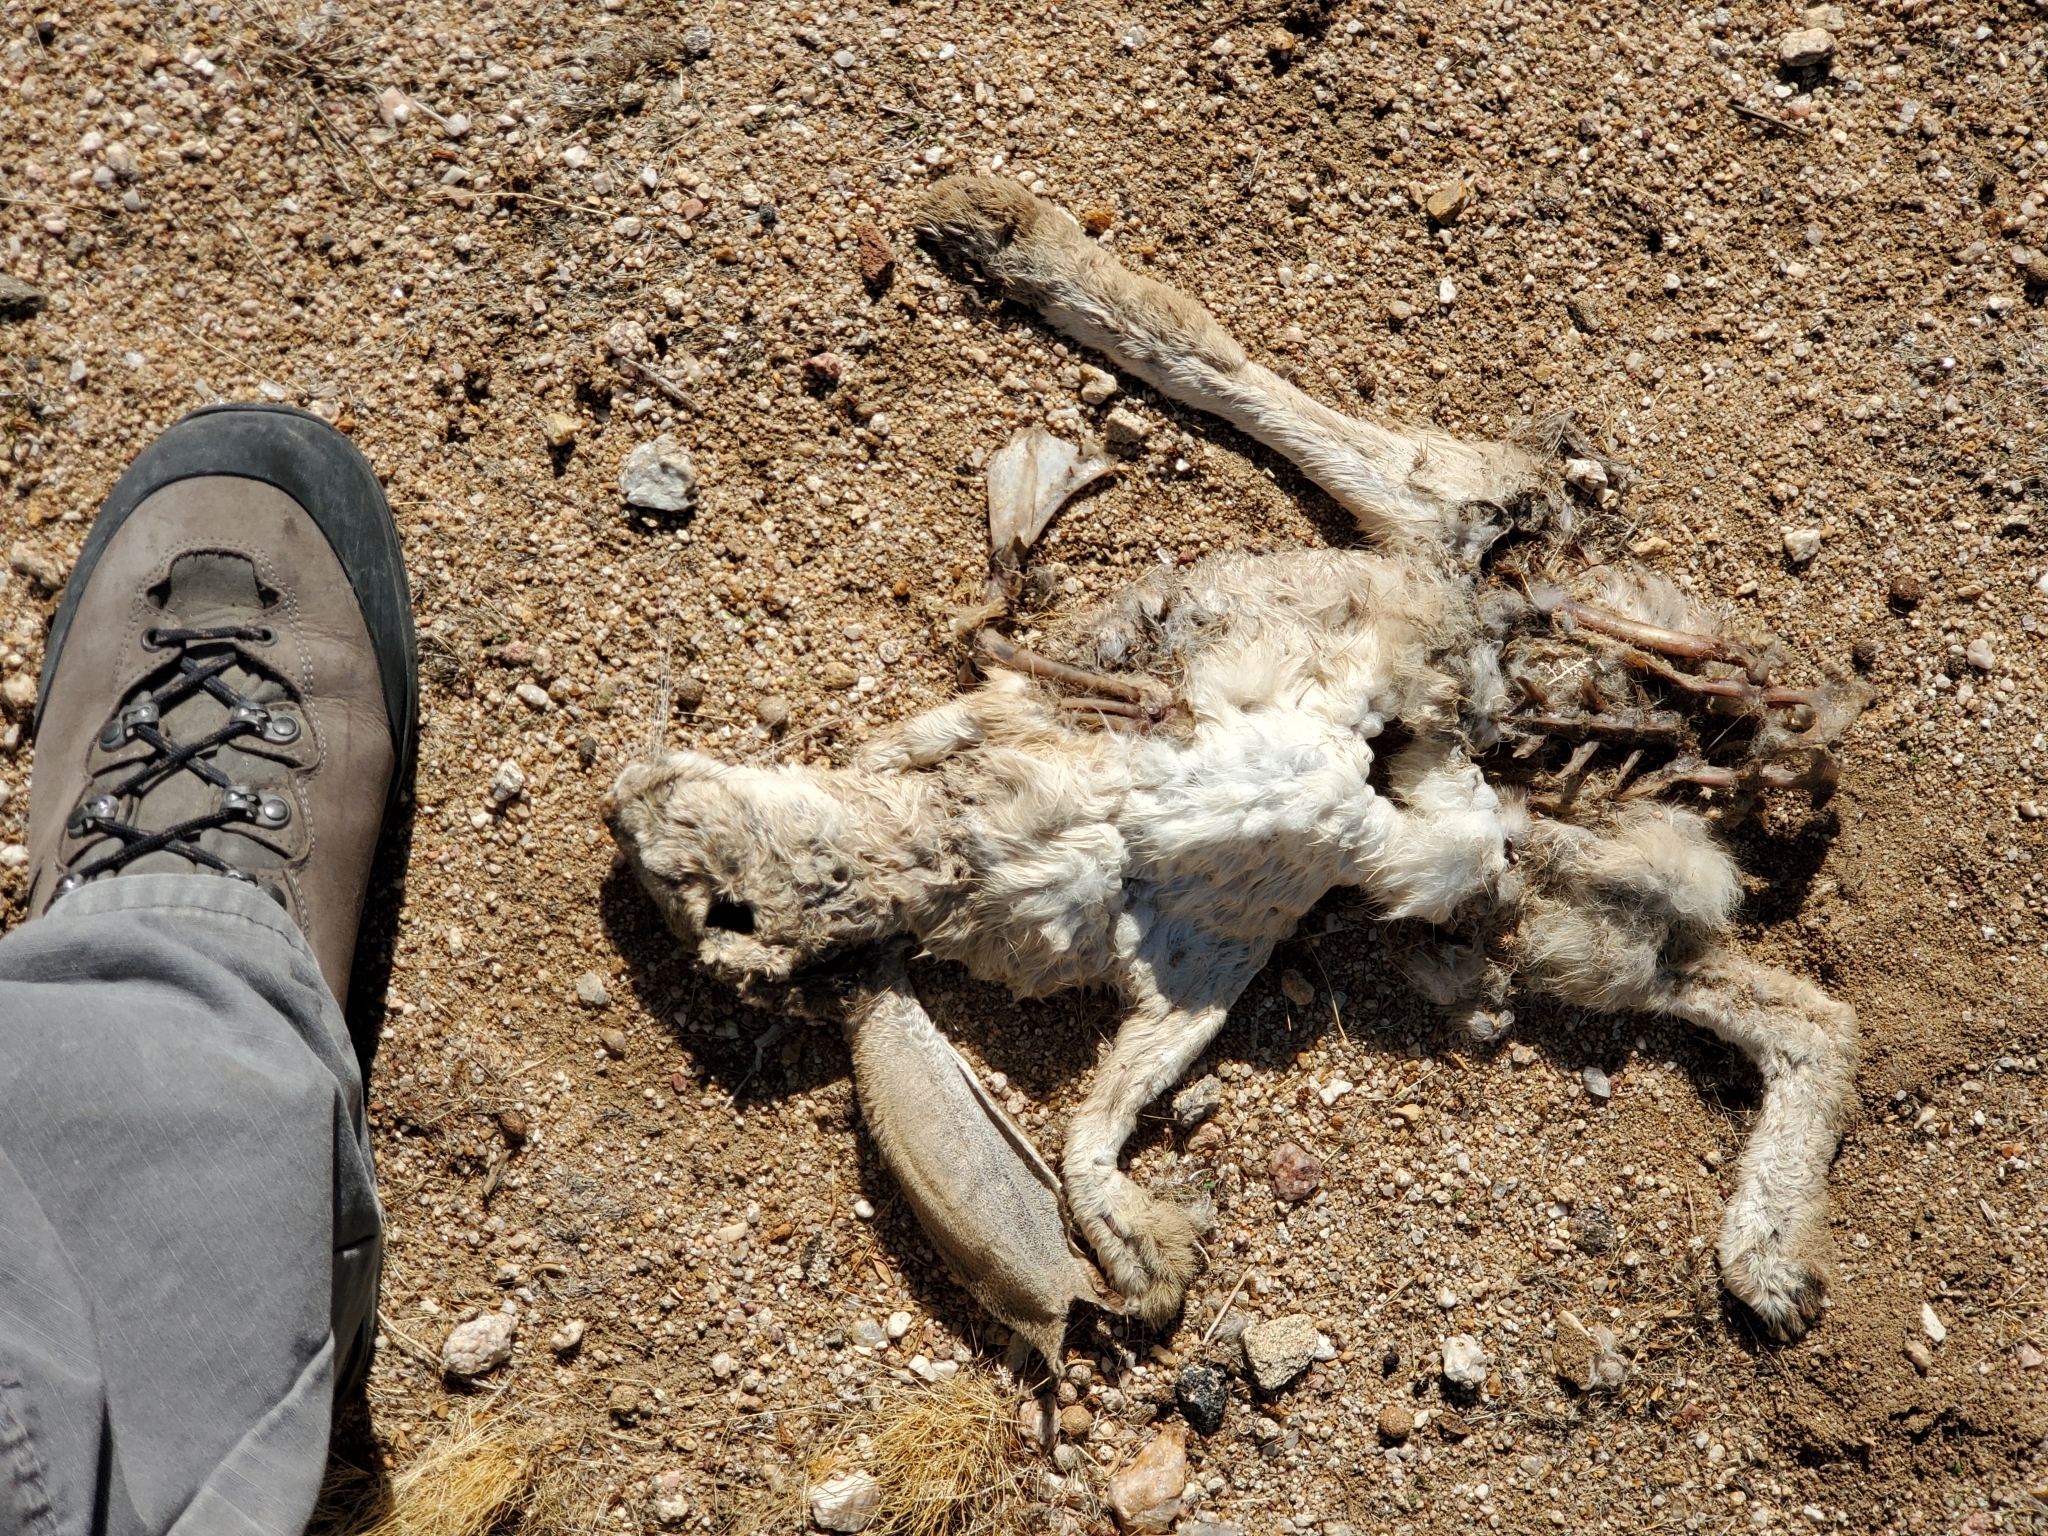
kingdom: Animalia
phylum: Chordata
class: Mammalia
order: Lagomorpha
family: Leporidae
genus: Lepus
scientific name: Lepus californicus
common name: Black-tailed jackrabbit
